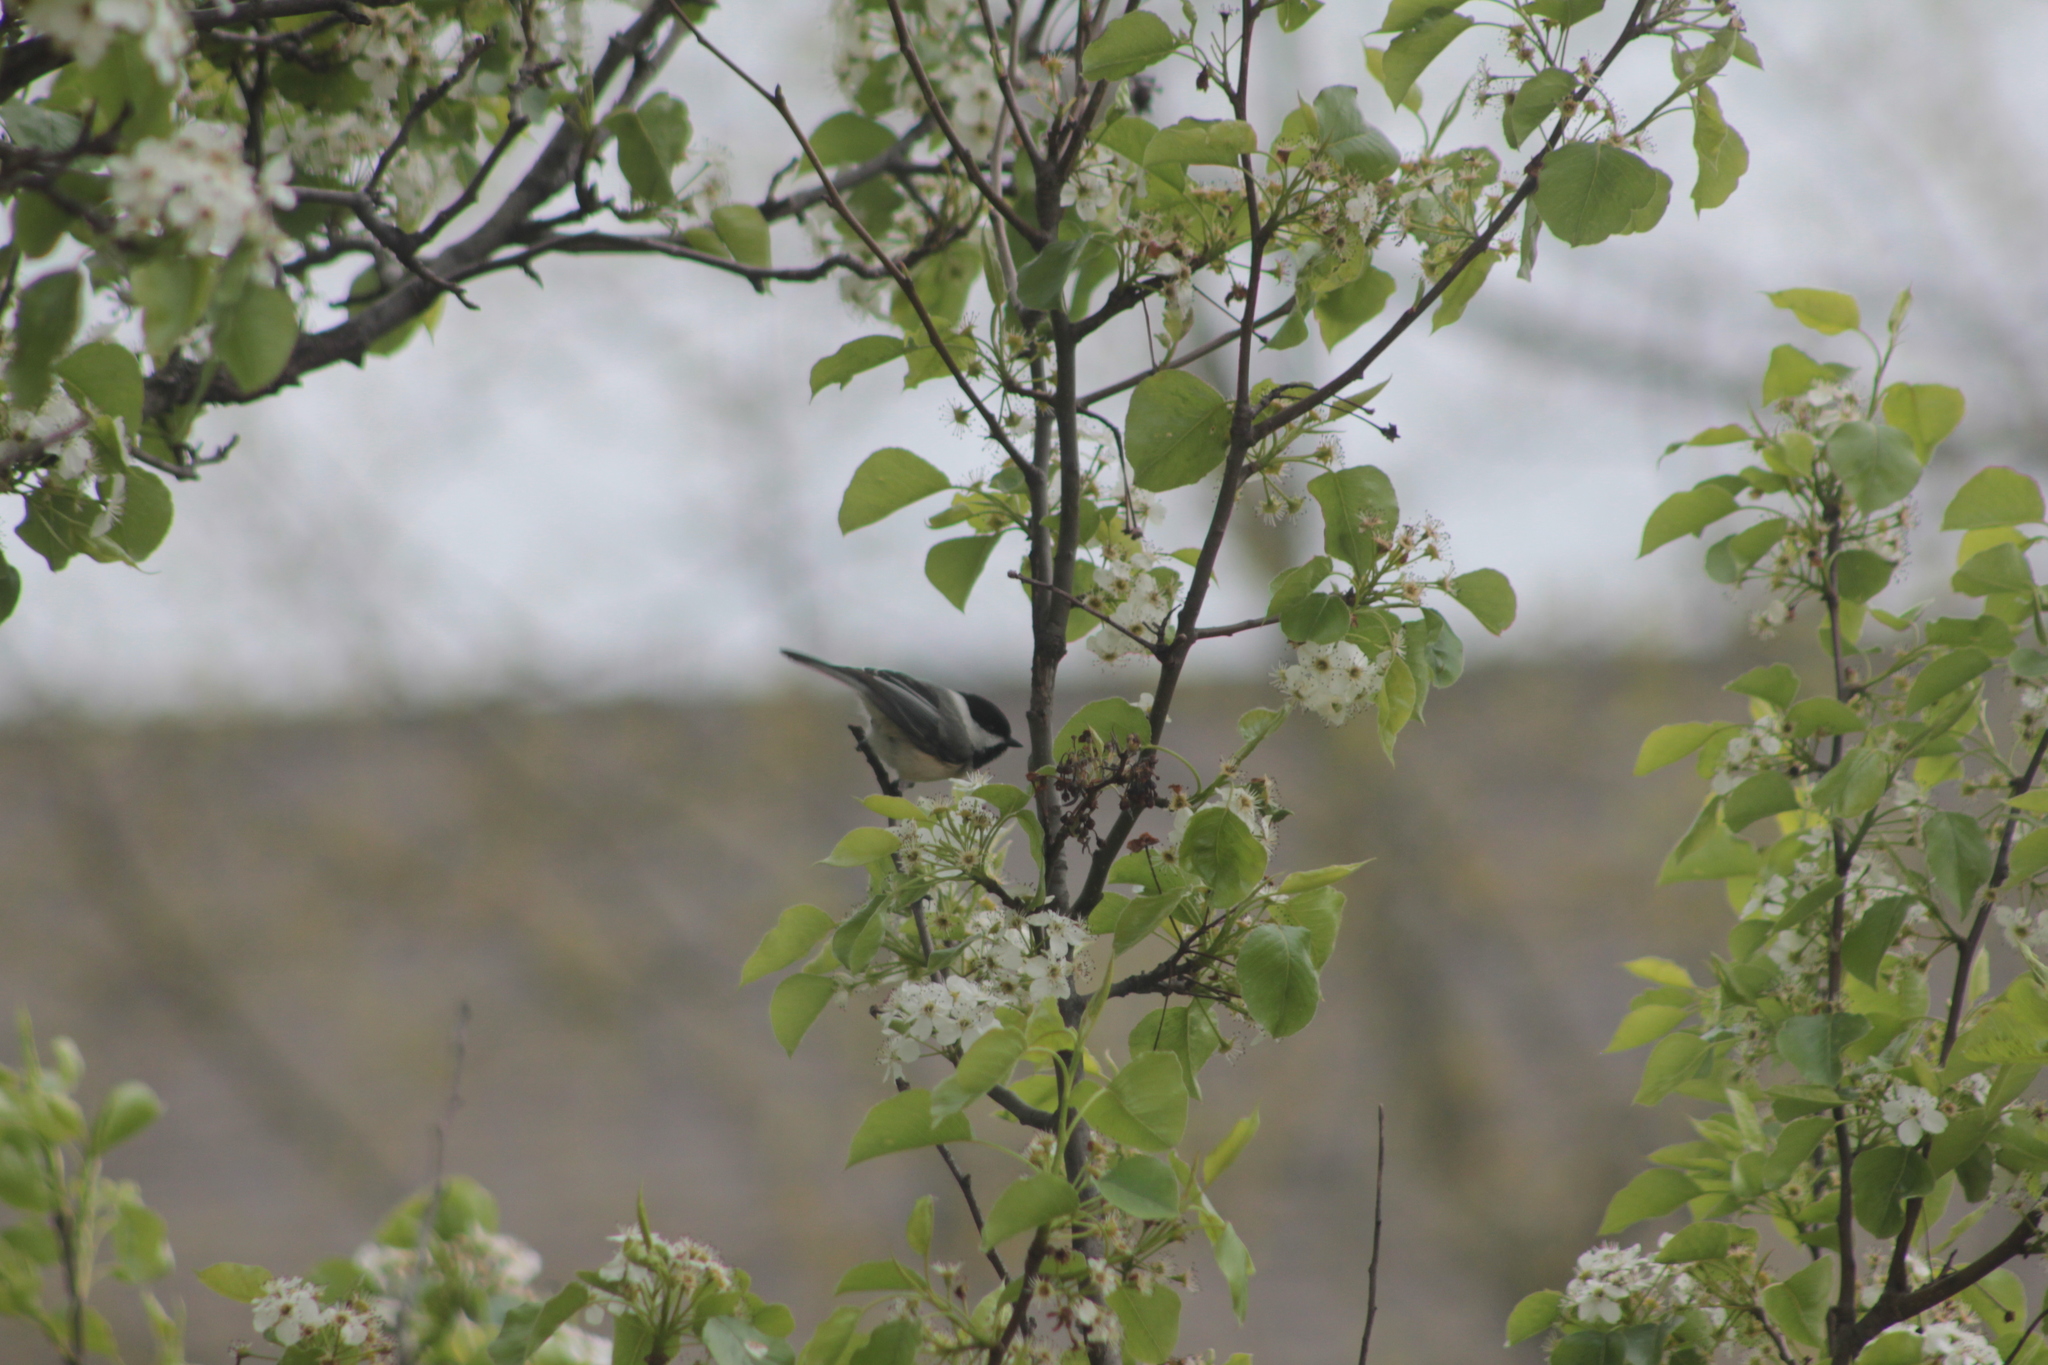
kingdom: Animalia
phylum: Chordata
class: Aves
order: Passeriformes
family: Paridae
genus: Poecile
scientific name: Poecile atricapillus
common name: Black-capped chickadee
